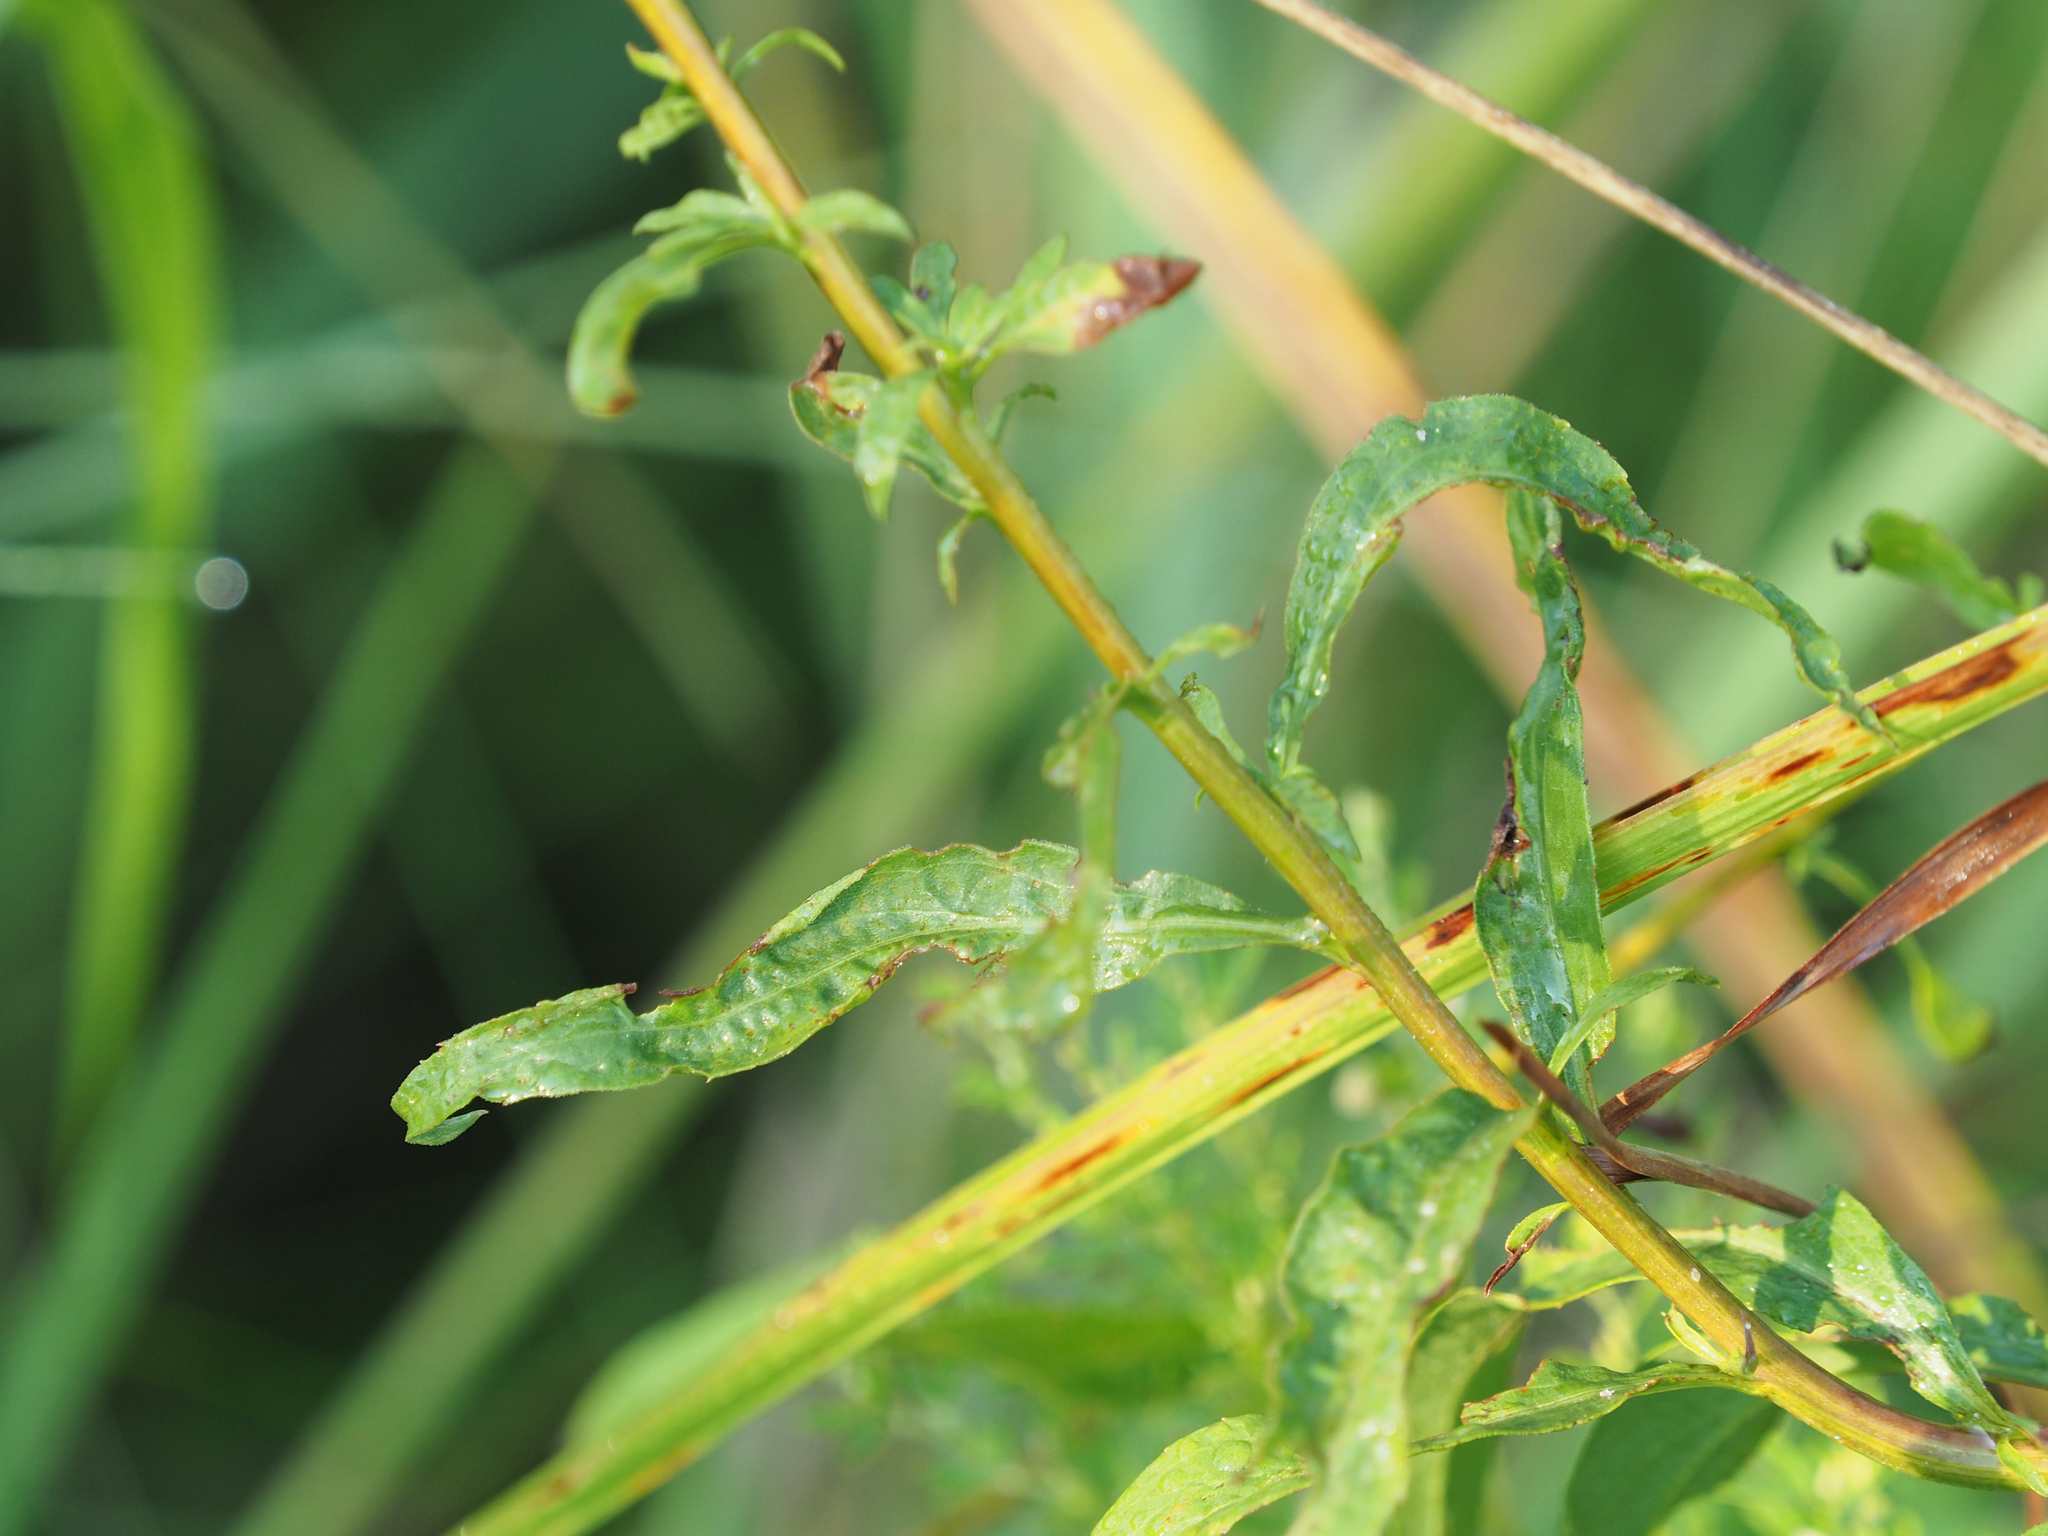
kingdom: Plantae
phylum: Tracheophyta
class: Magnoliopsida
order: Asterales
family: Asteraceae
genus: Solidago
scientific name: Solidago juncea
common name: Early goldenrod
